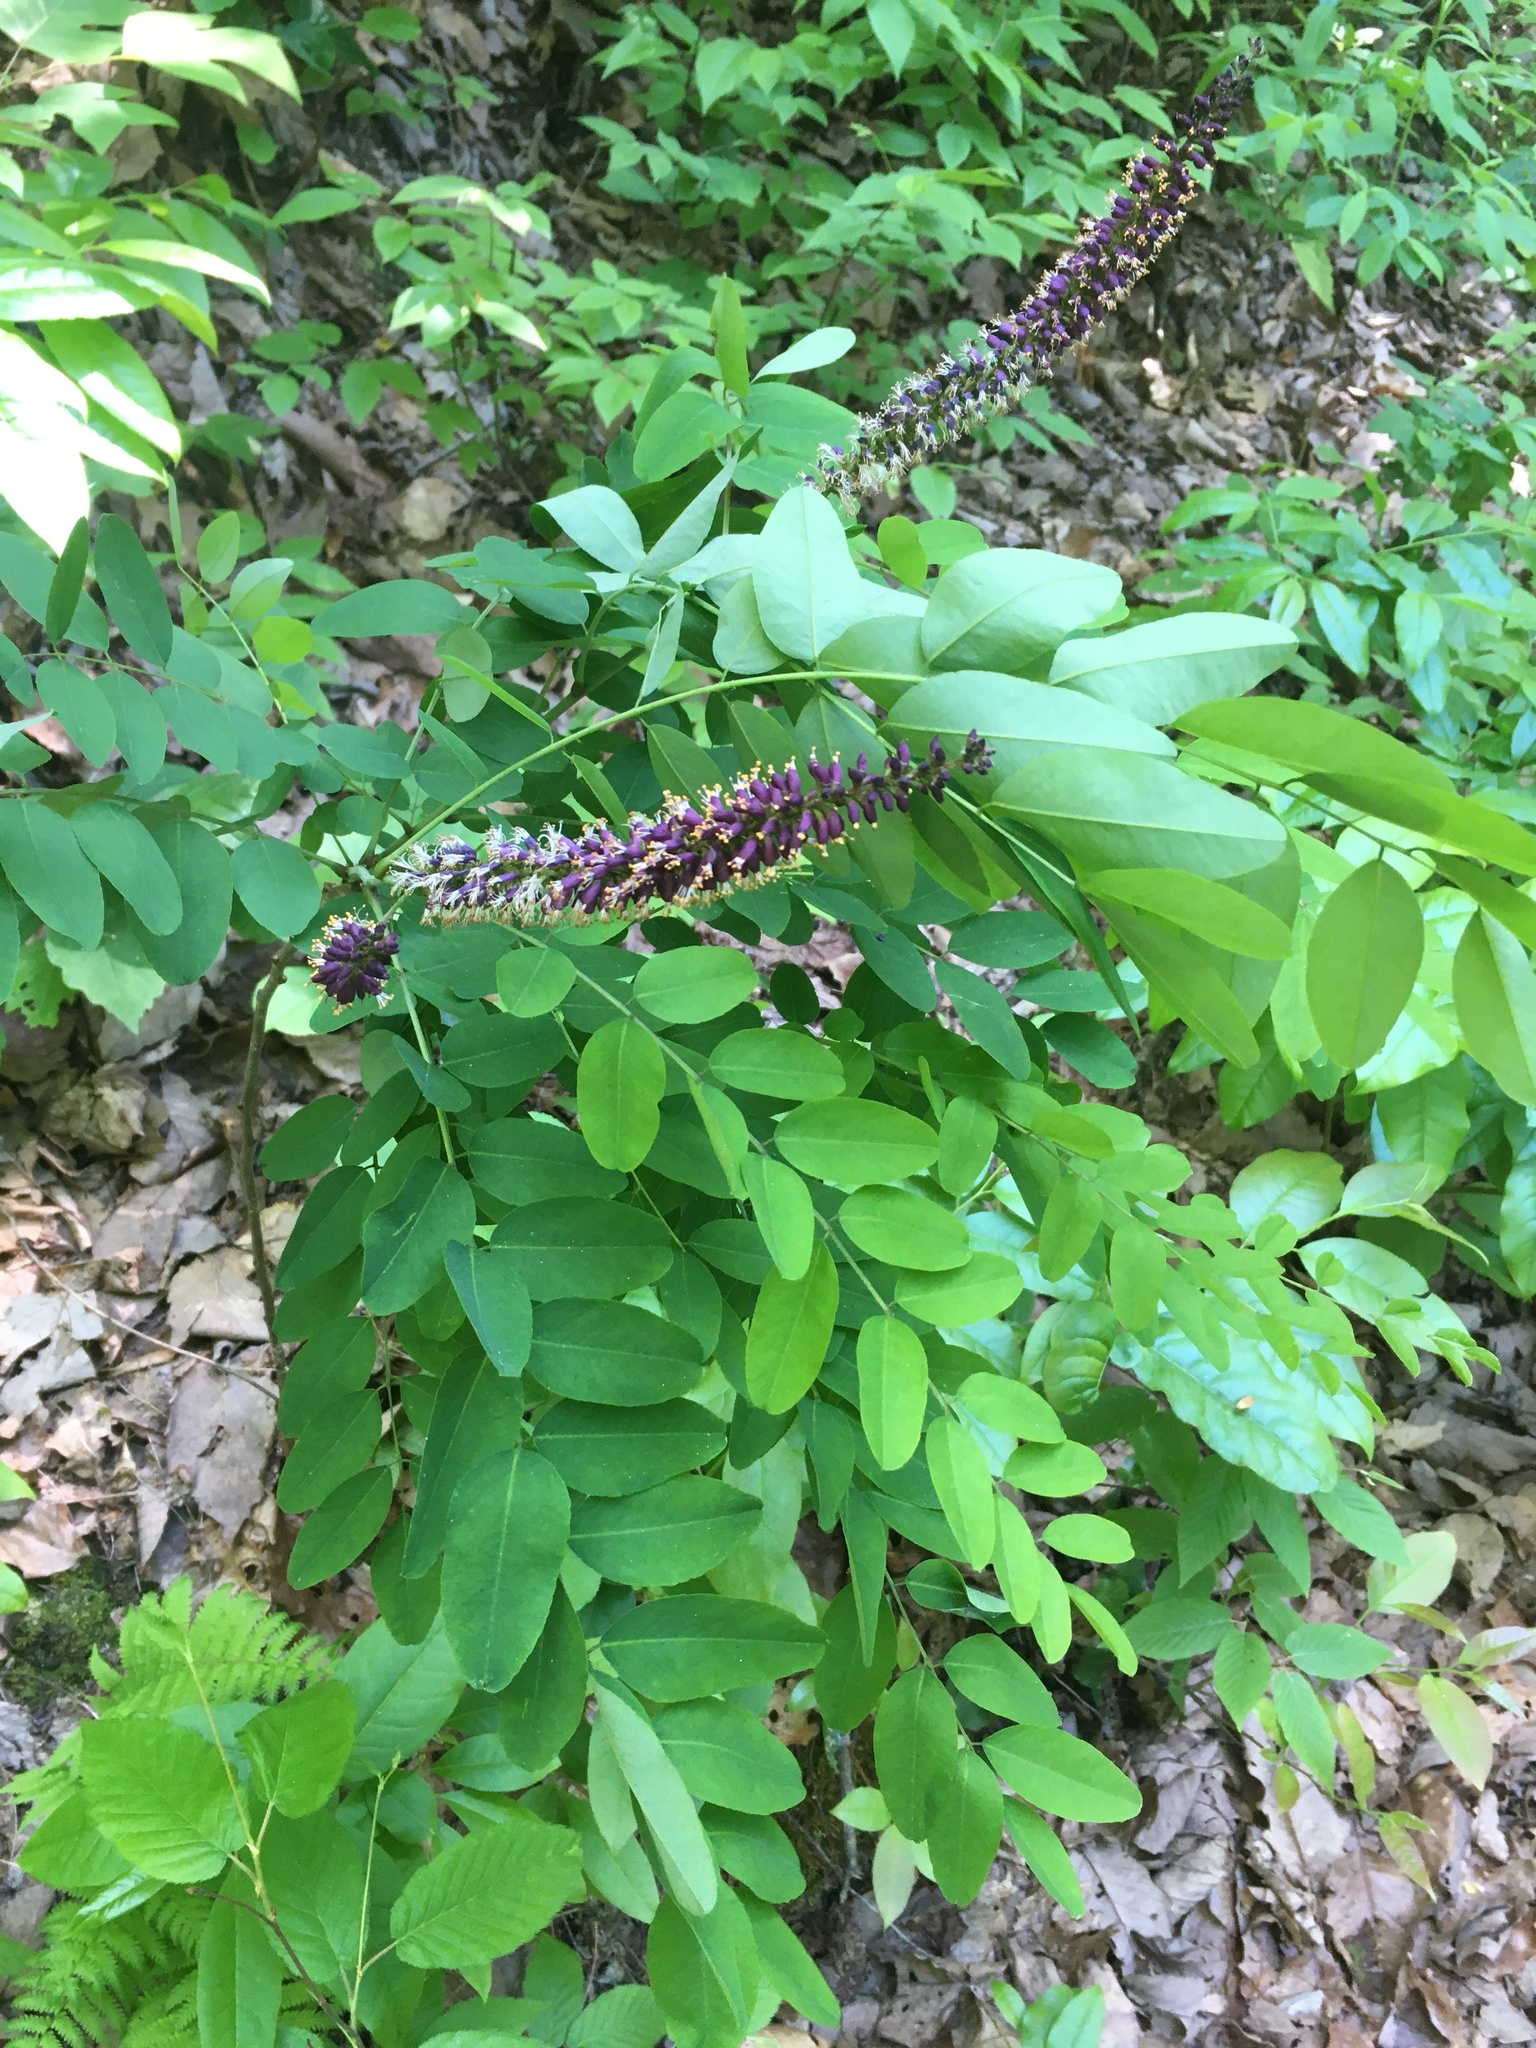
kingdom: Plantae
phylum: Tracheophyta
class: Magnoliopsida
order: Fabales
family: Fabaceae
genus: Amorpha
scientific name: Amorpha fruticosa
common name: False indigo
